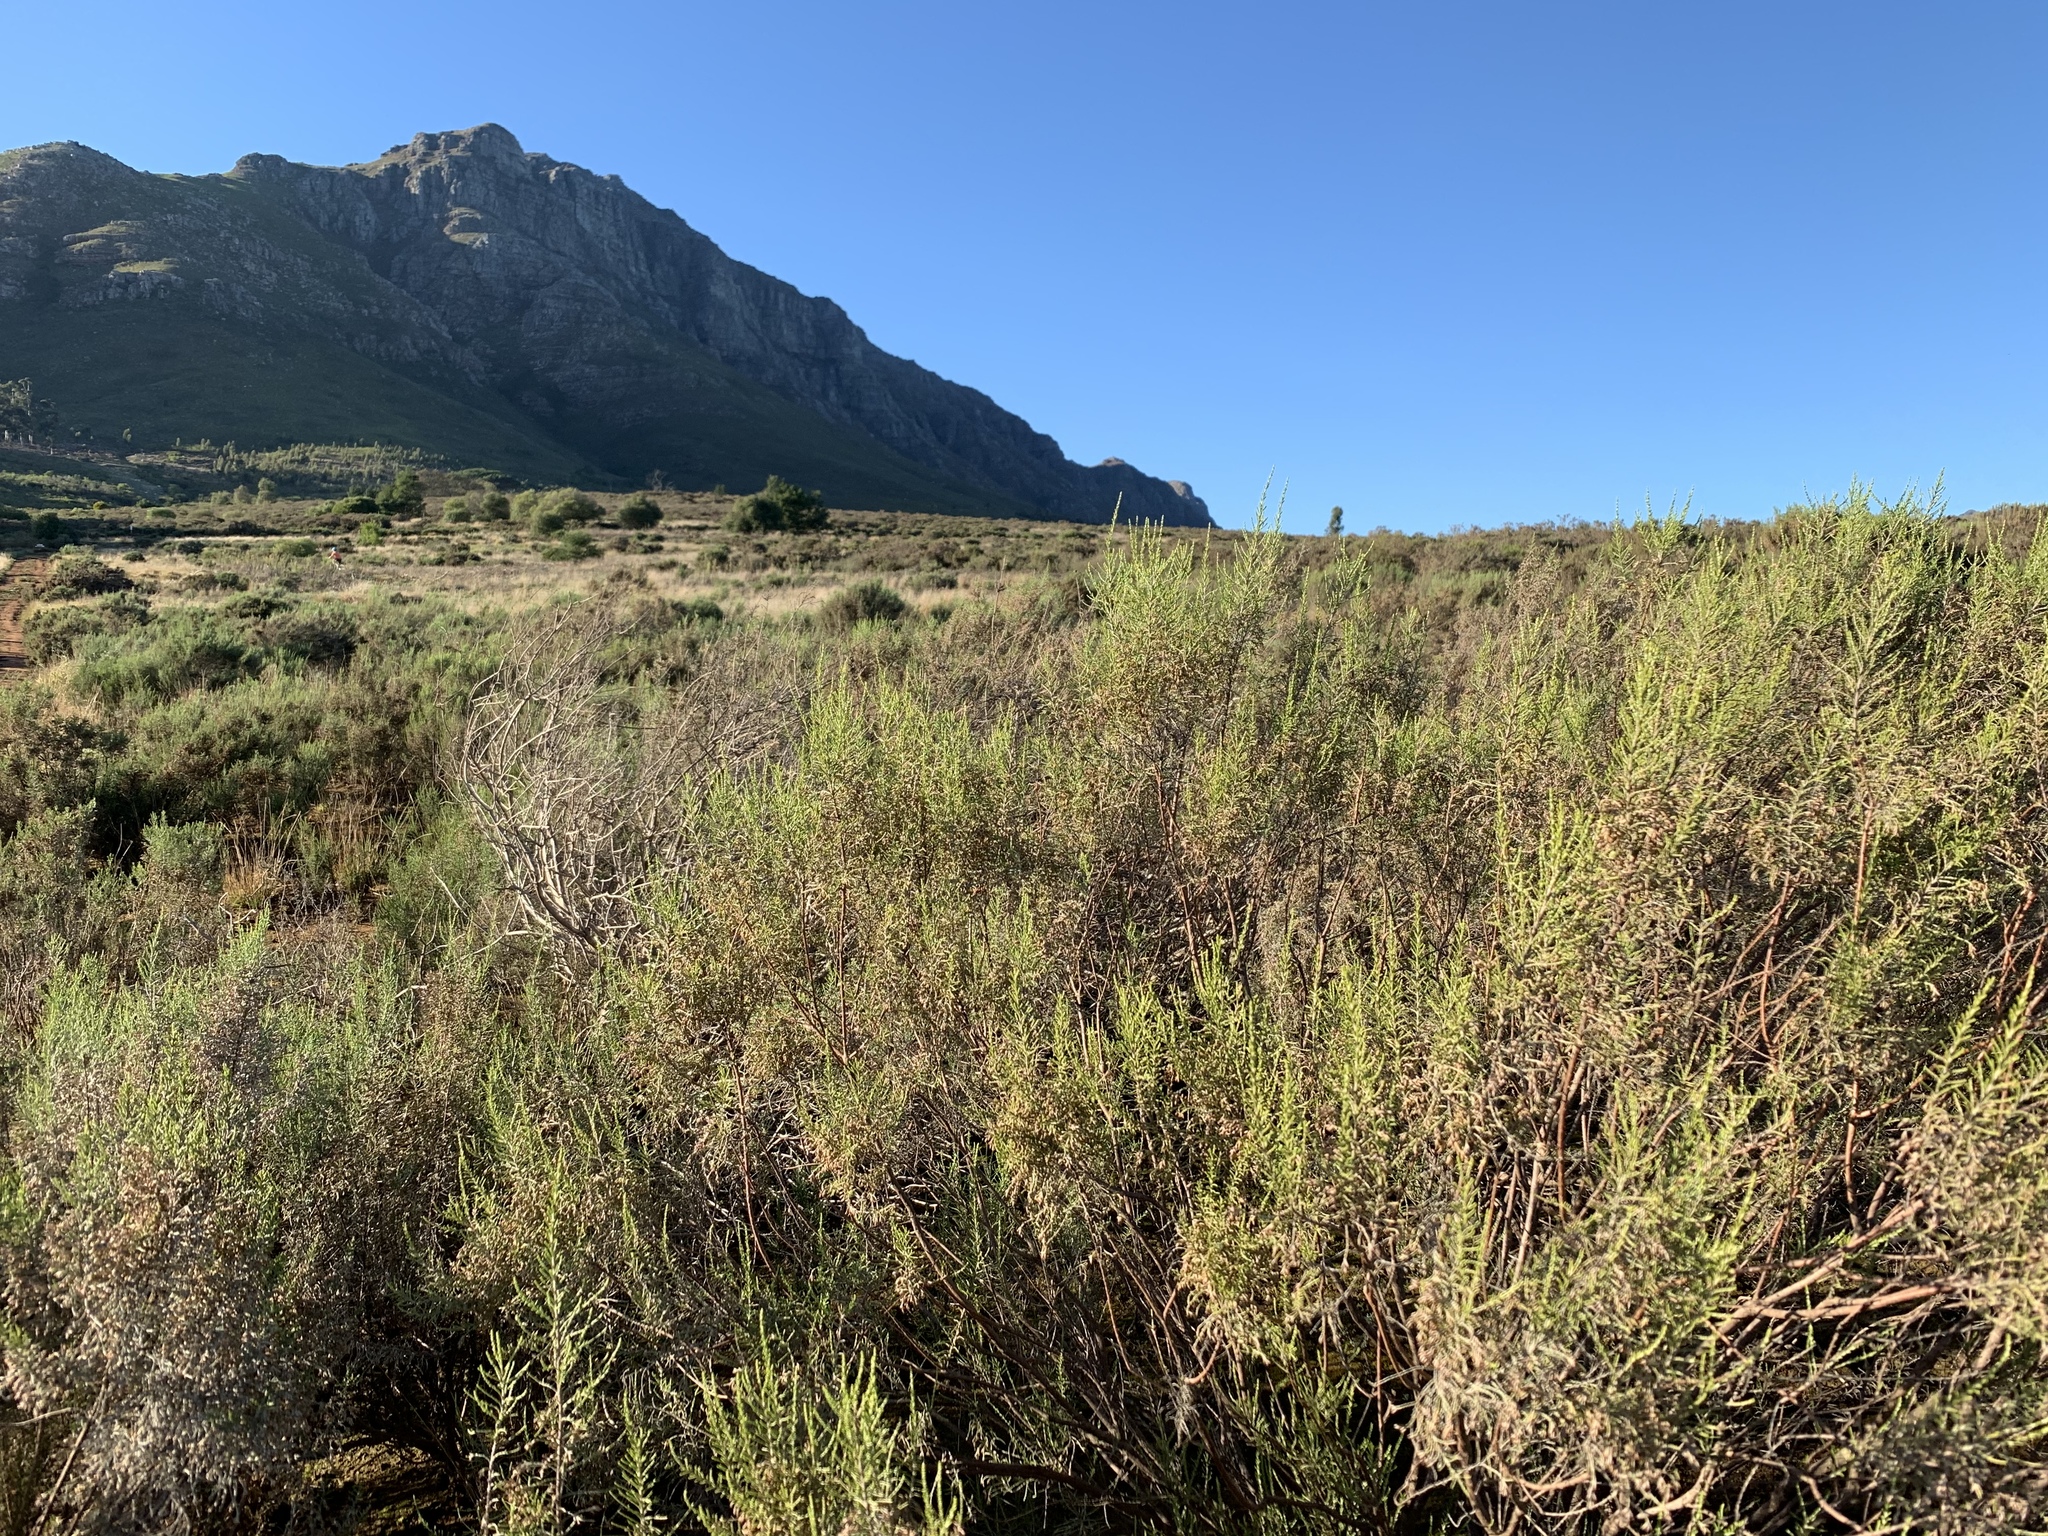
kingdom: Plantae
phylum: Tracheophyta
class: Magnoliopsida
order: Asterales
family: Asteraceae
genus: Dicerothamnus
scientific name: Dicerothamnus rhinocerotis
